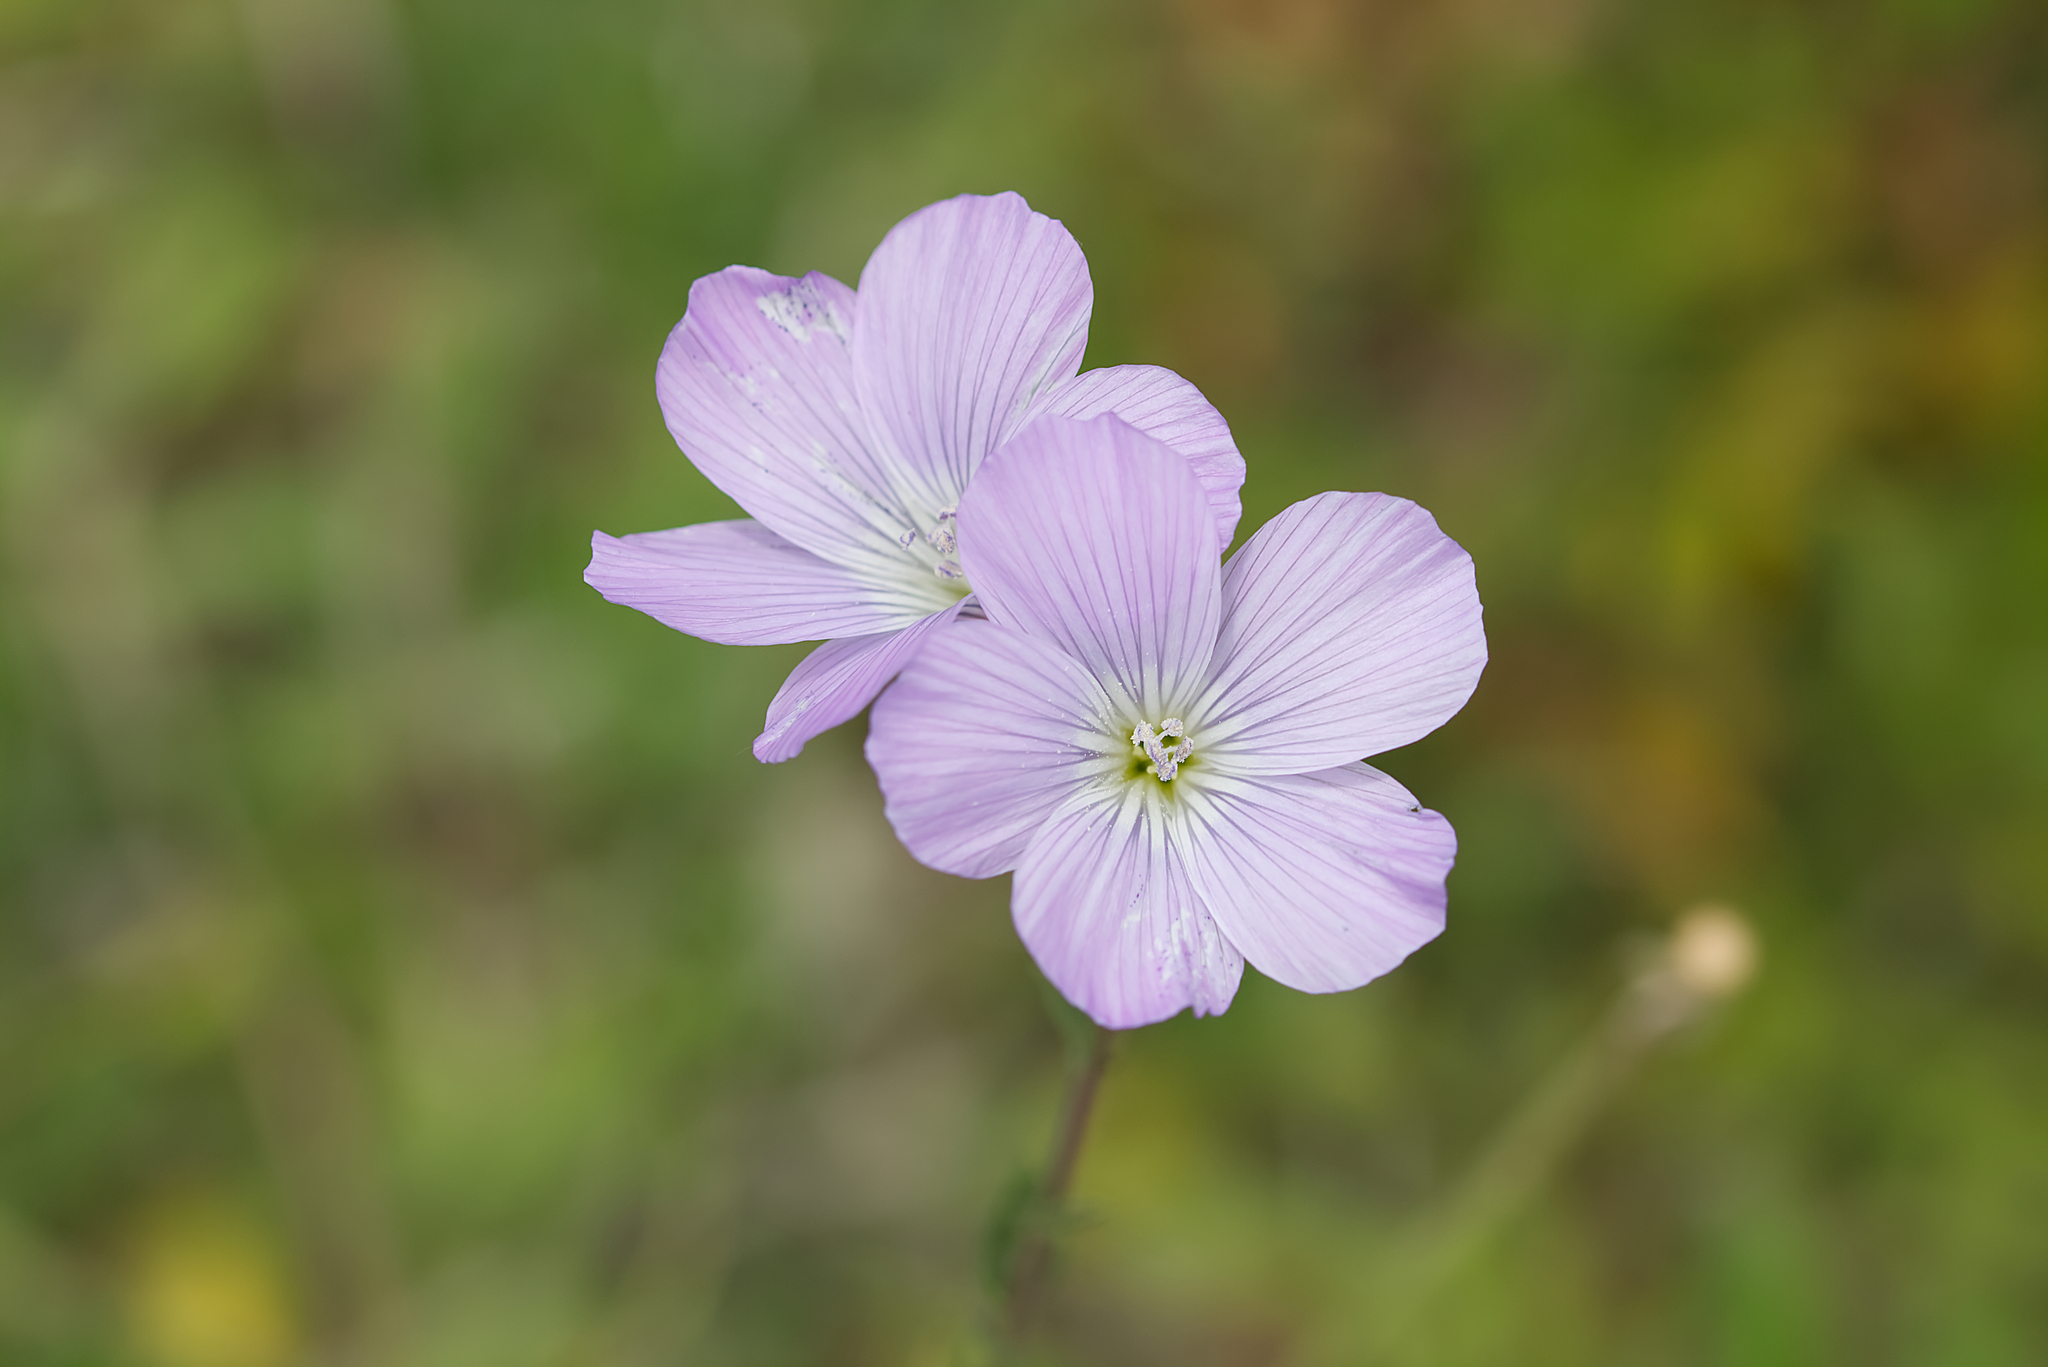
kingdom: Plantae
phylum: Tracheophyta
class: Magnoliopsida
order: Malpighiales
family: Linaceae
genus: Linum
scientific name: Linum hirsutum
